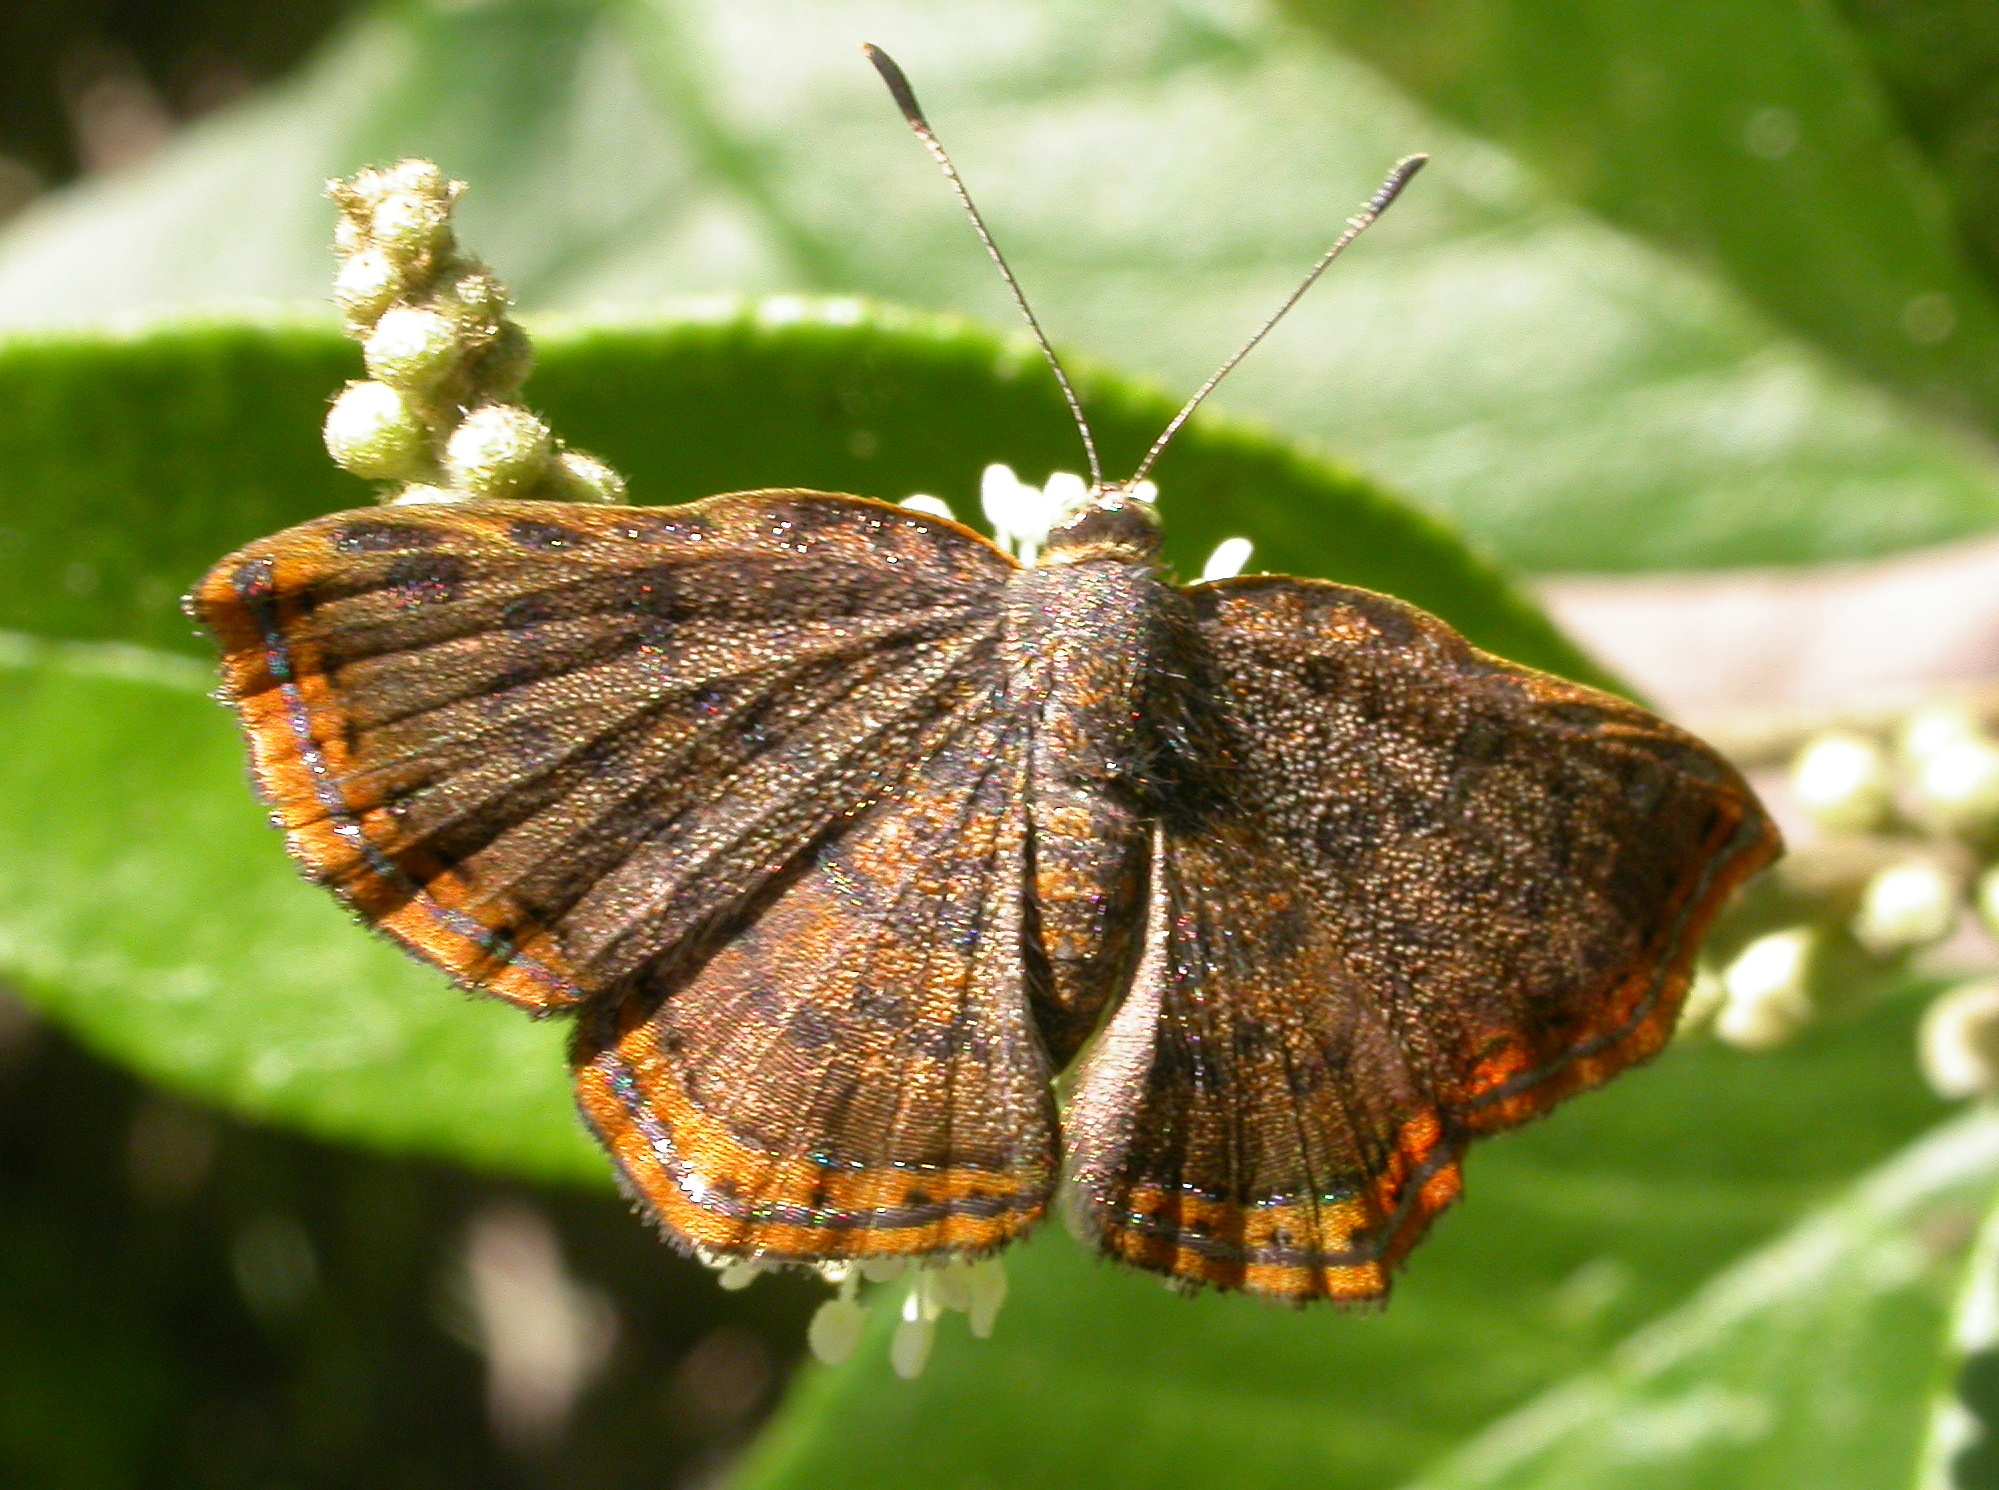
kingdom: Animalia
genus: Caria
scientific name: Caria ino
